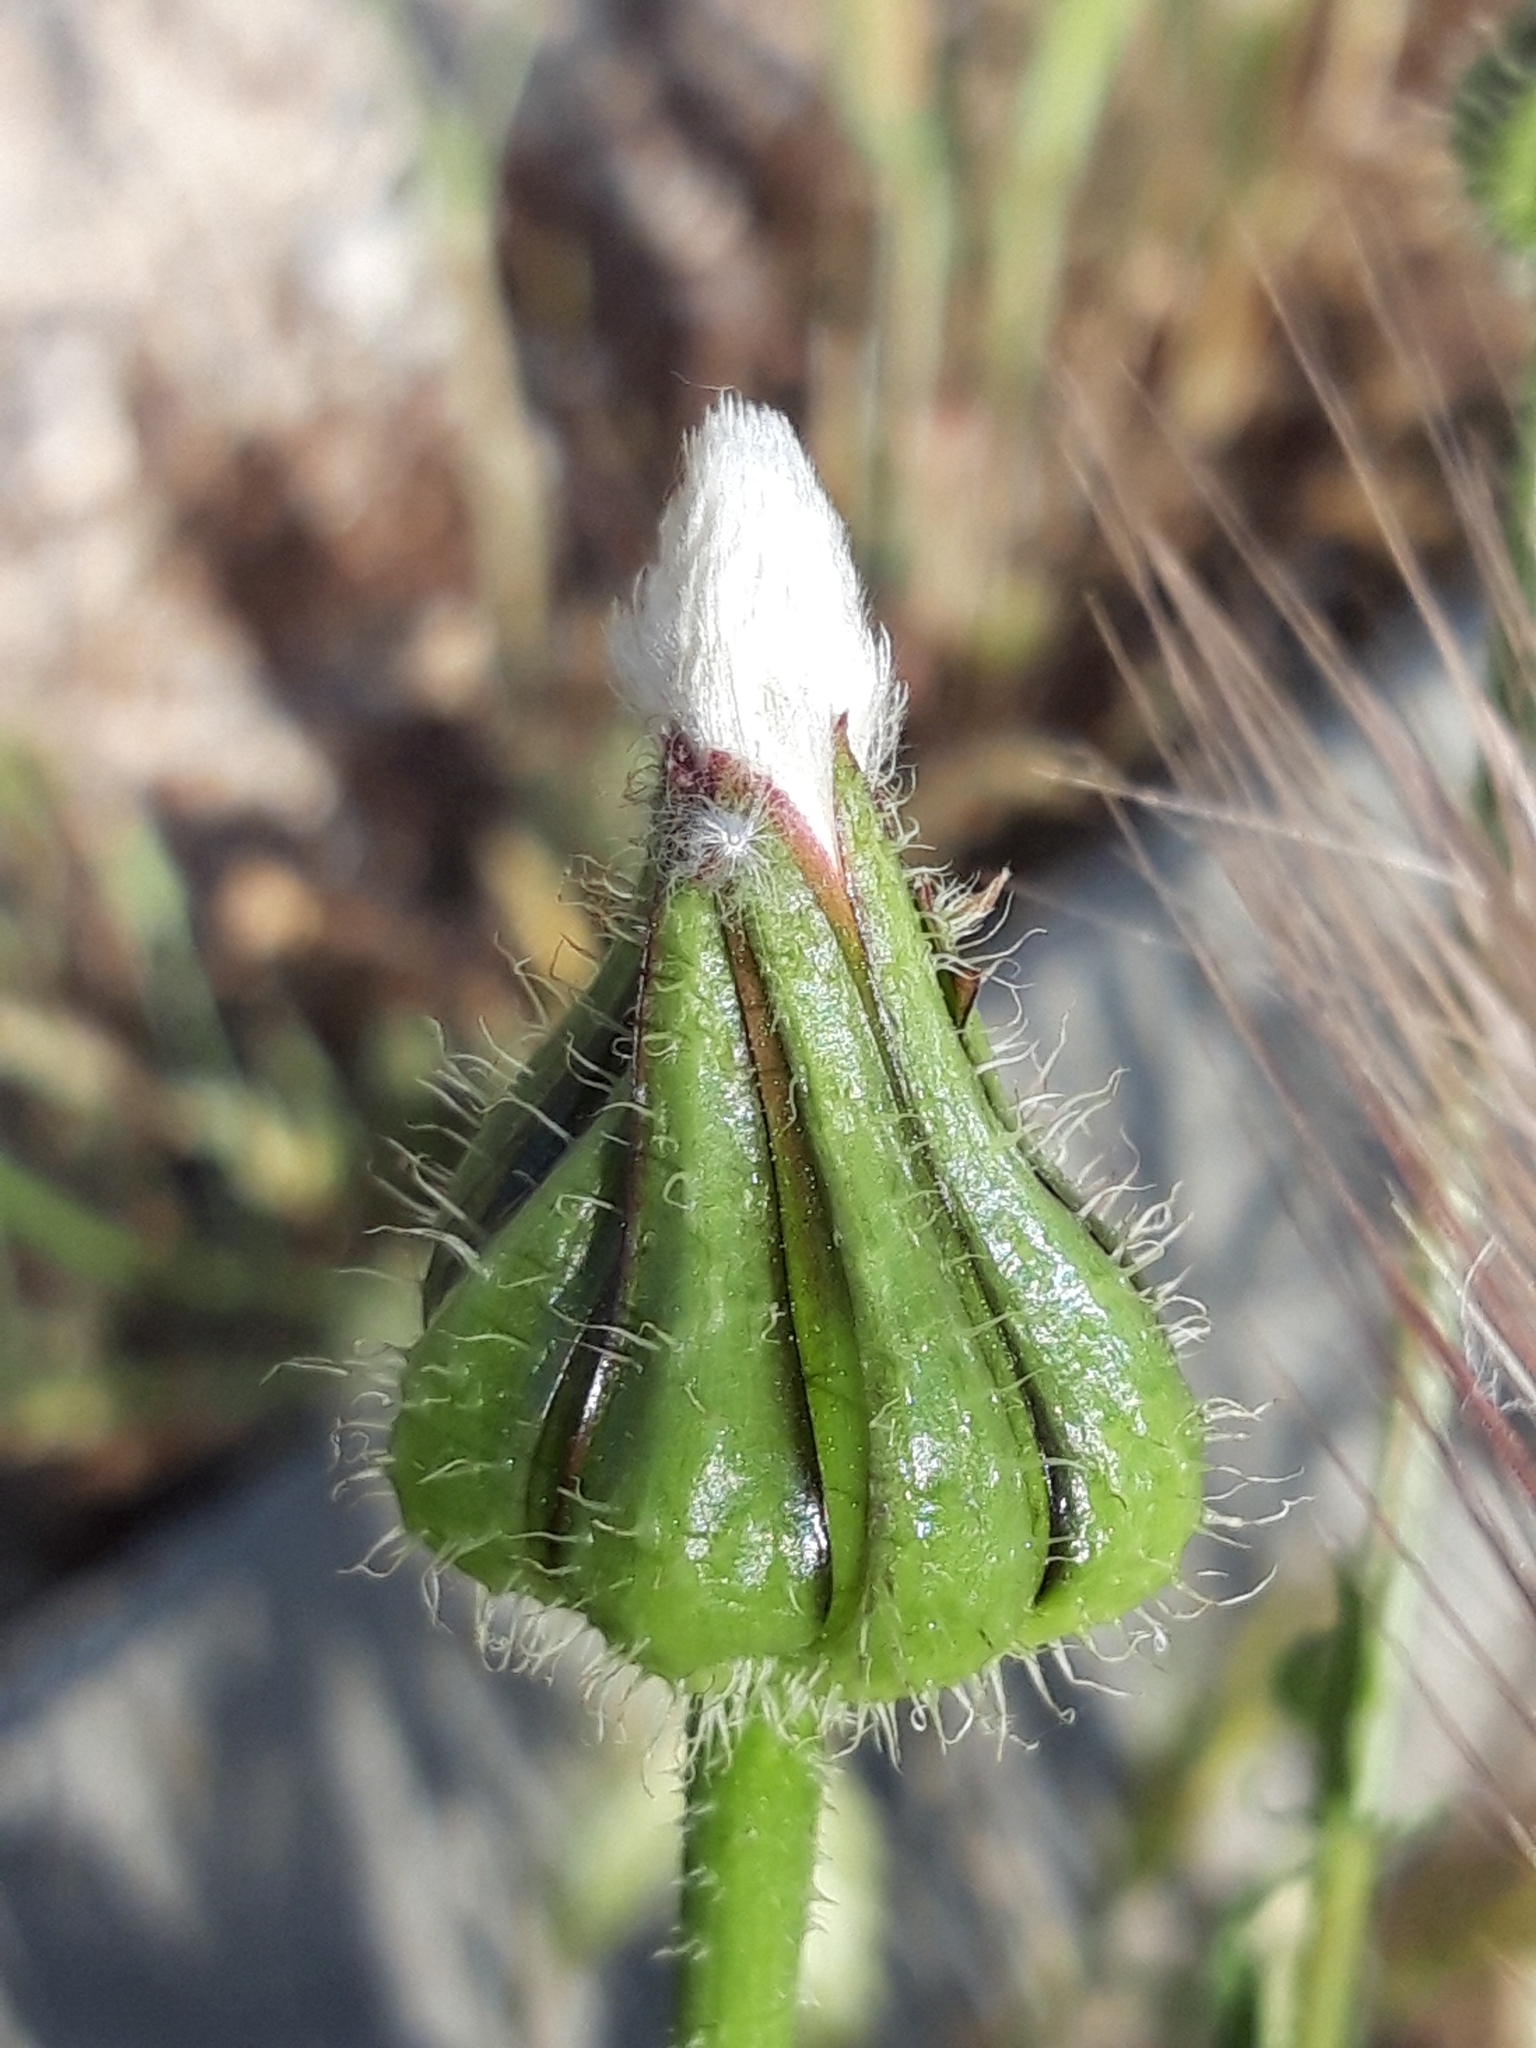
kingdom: Plantae
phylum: Tracheophyta
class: Magnoliopsida
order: Asterales
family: Asteraceae
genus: Urospermum
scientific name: Urospermum picroides
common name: False hawkbit
